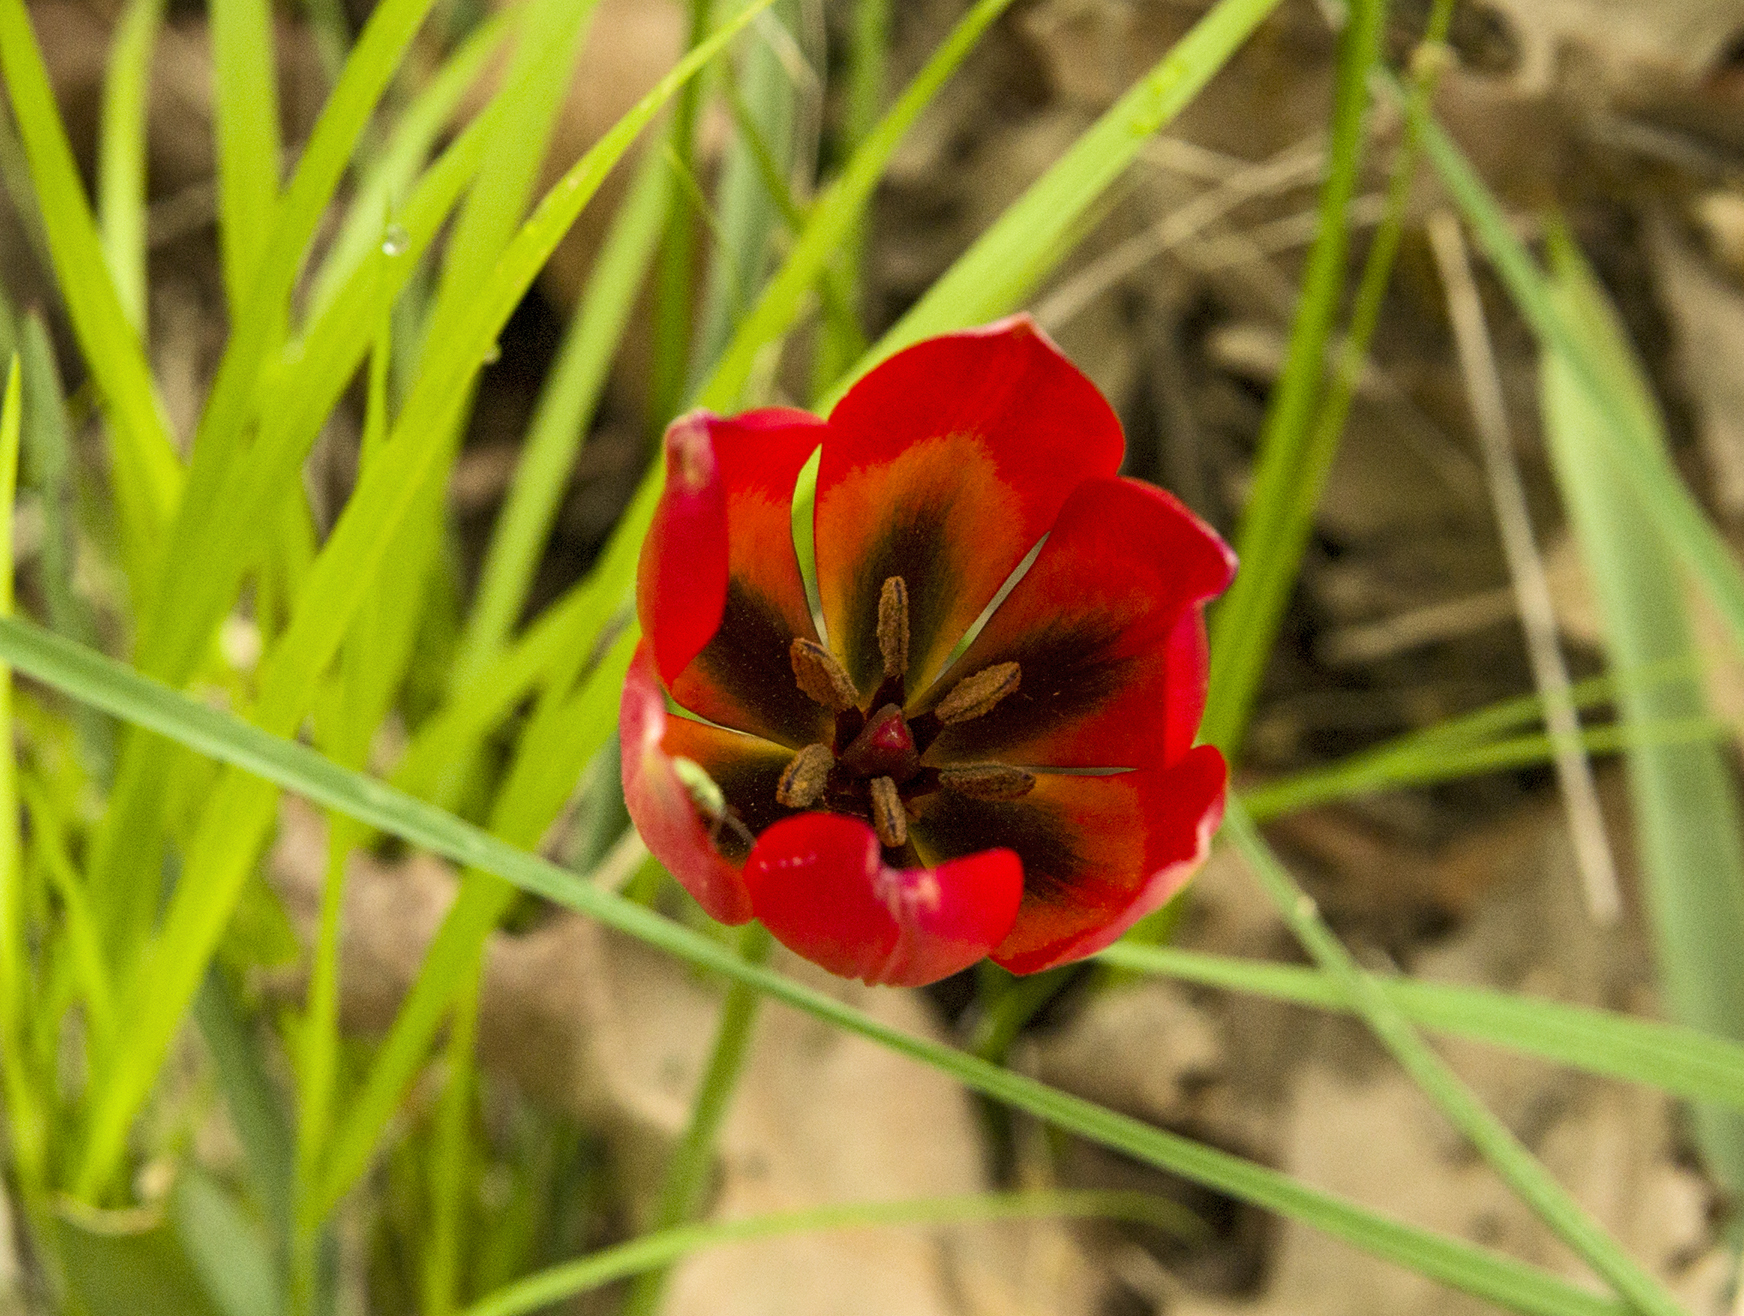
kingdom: Plantae
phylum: Tracheophyta
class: Liliopsida
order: Liliales
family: Liliaceae
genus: Tulipa
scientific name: Tulipa orphanidea
